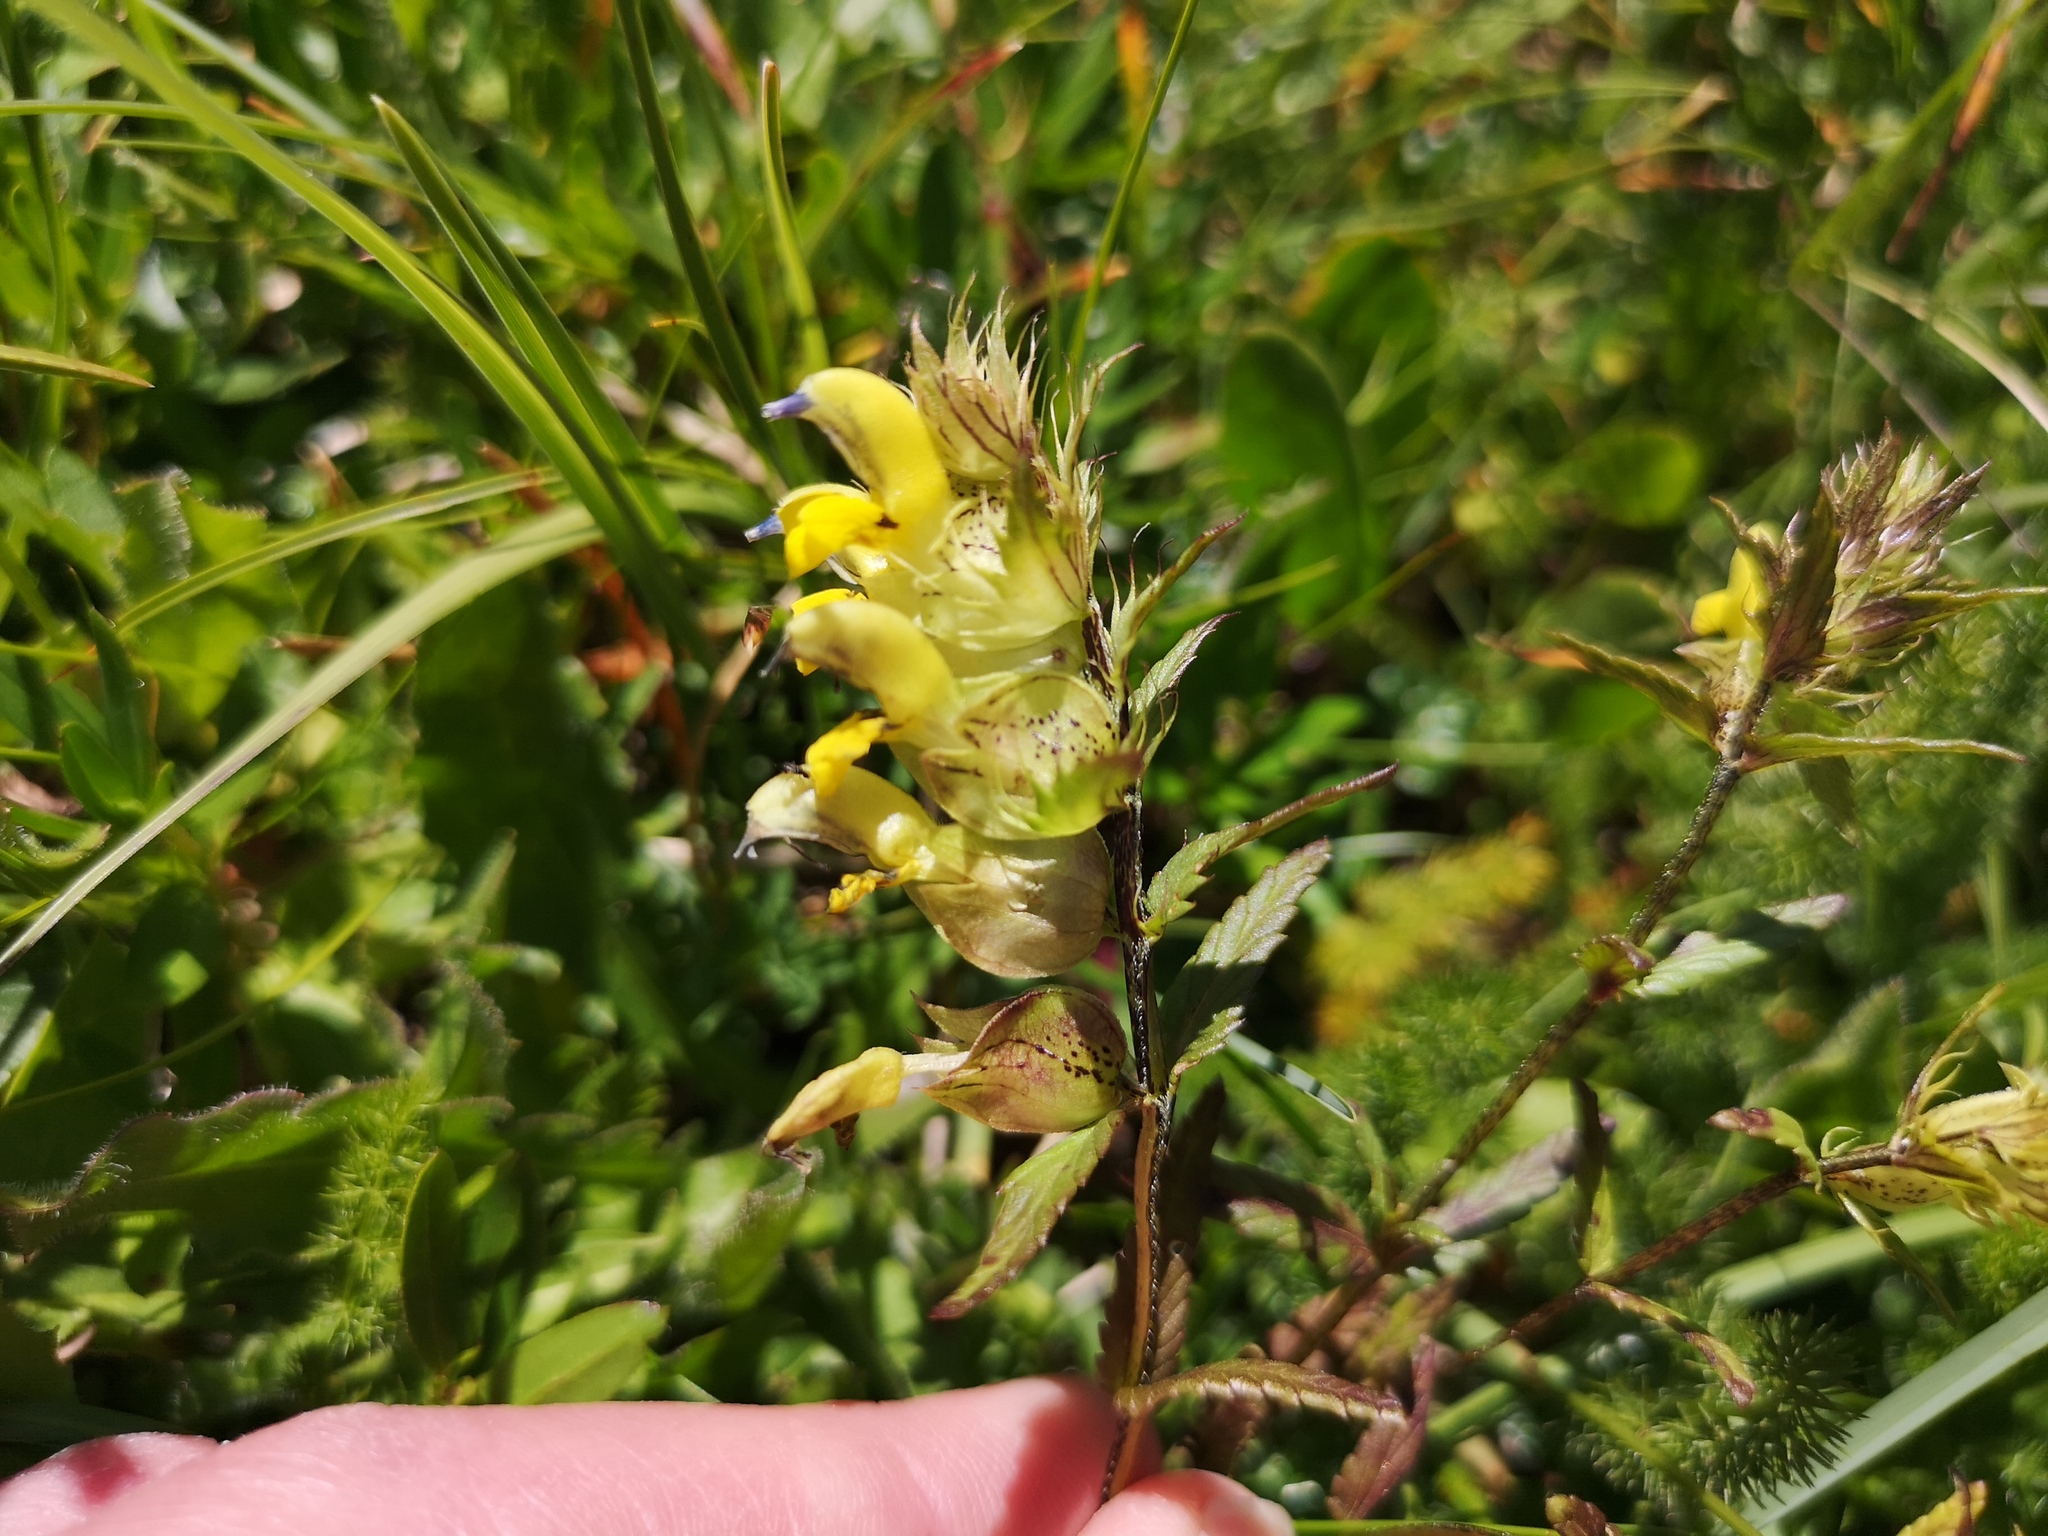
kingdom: Plantae
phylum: Tracheophyta
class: Magnoliopsida
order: Lamiales
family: Orobanchaceae
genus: Rhinanthus
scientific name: Rhinanthus glacialis
